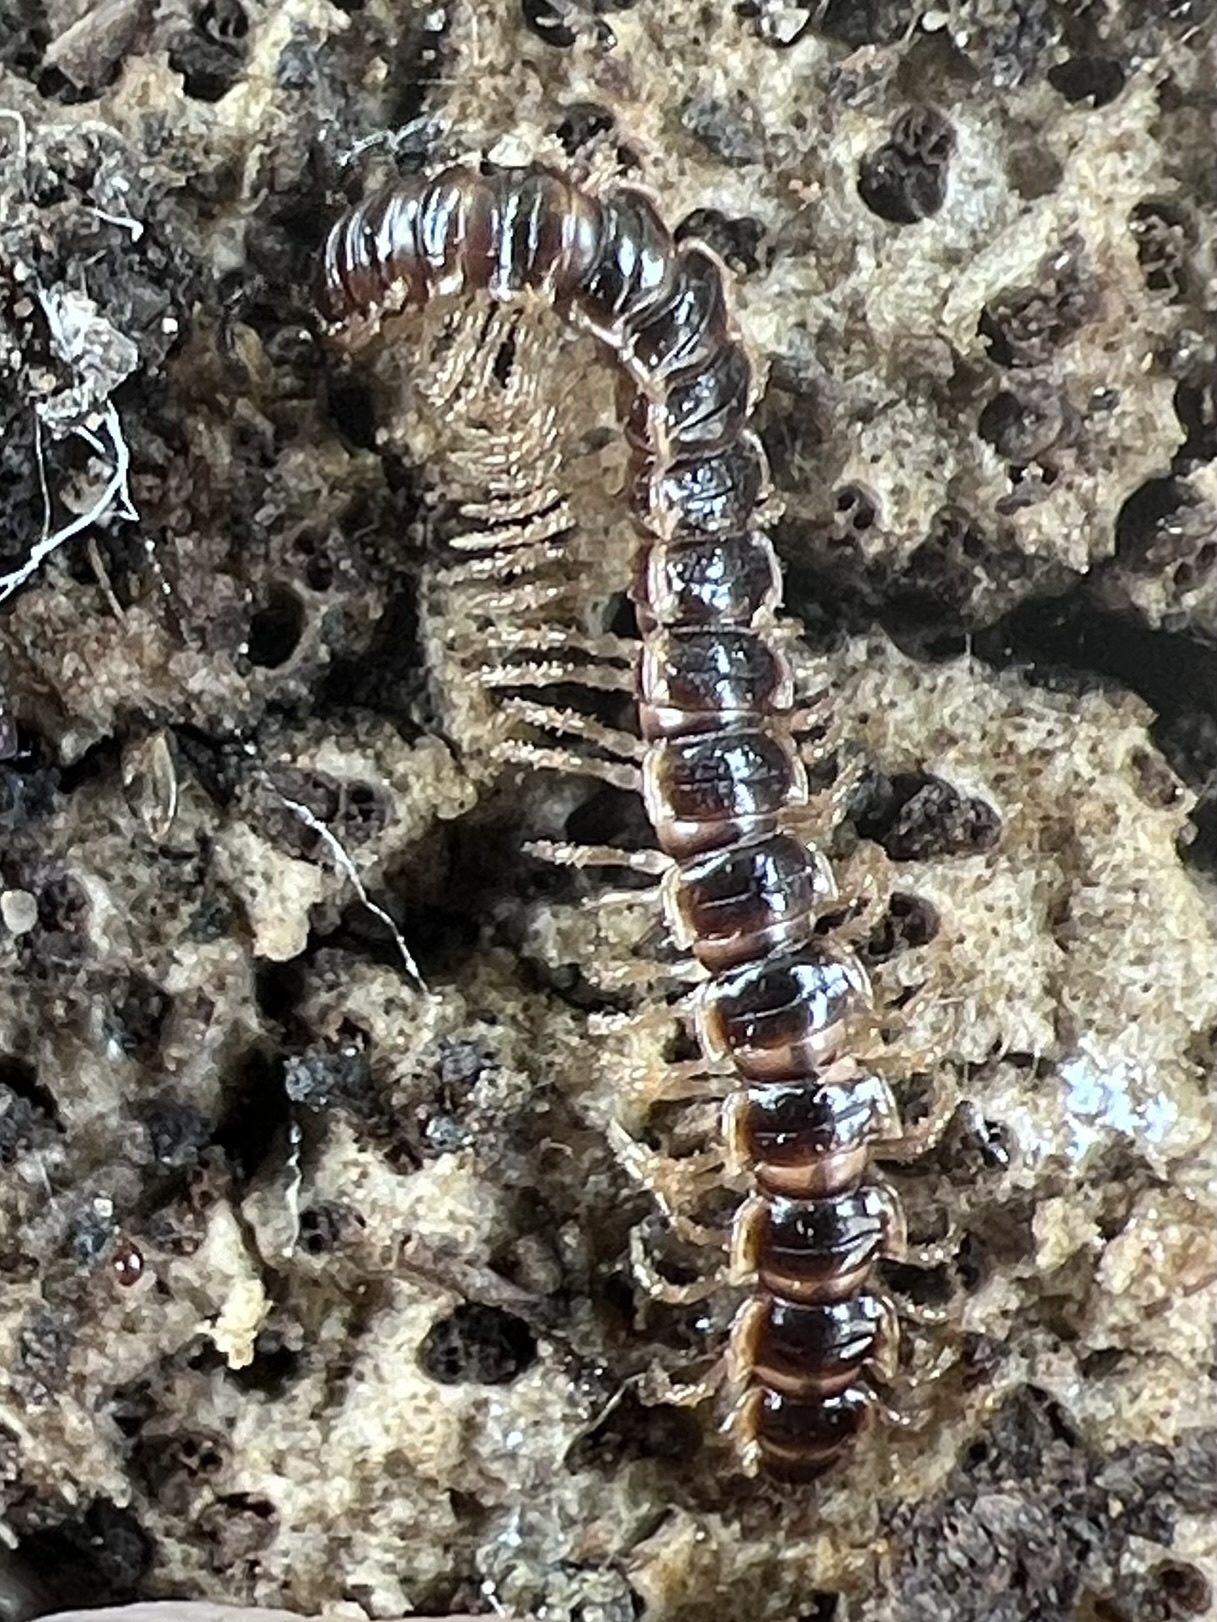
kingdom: Animalia
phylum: Arthropoda
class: Diplopoda
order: Polydesmida
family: Paradoxosomatidae
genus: Oxidus
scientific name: Oxidus gracilis
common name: Greenhouse millipede
